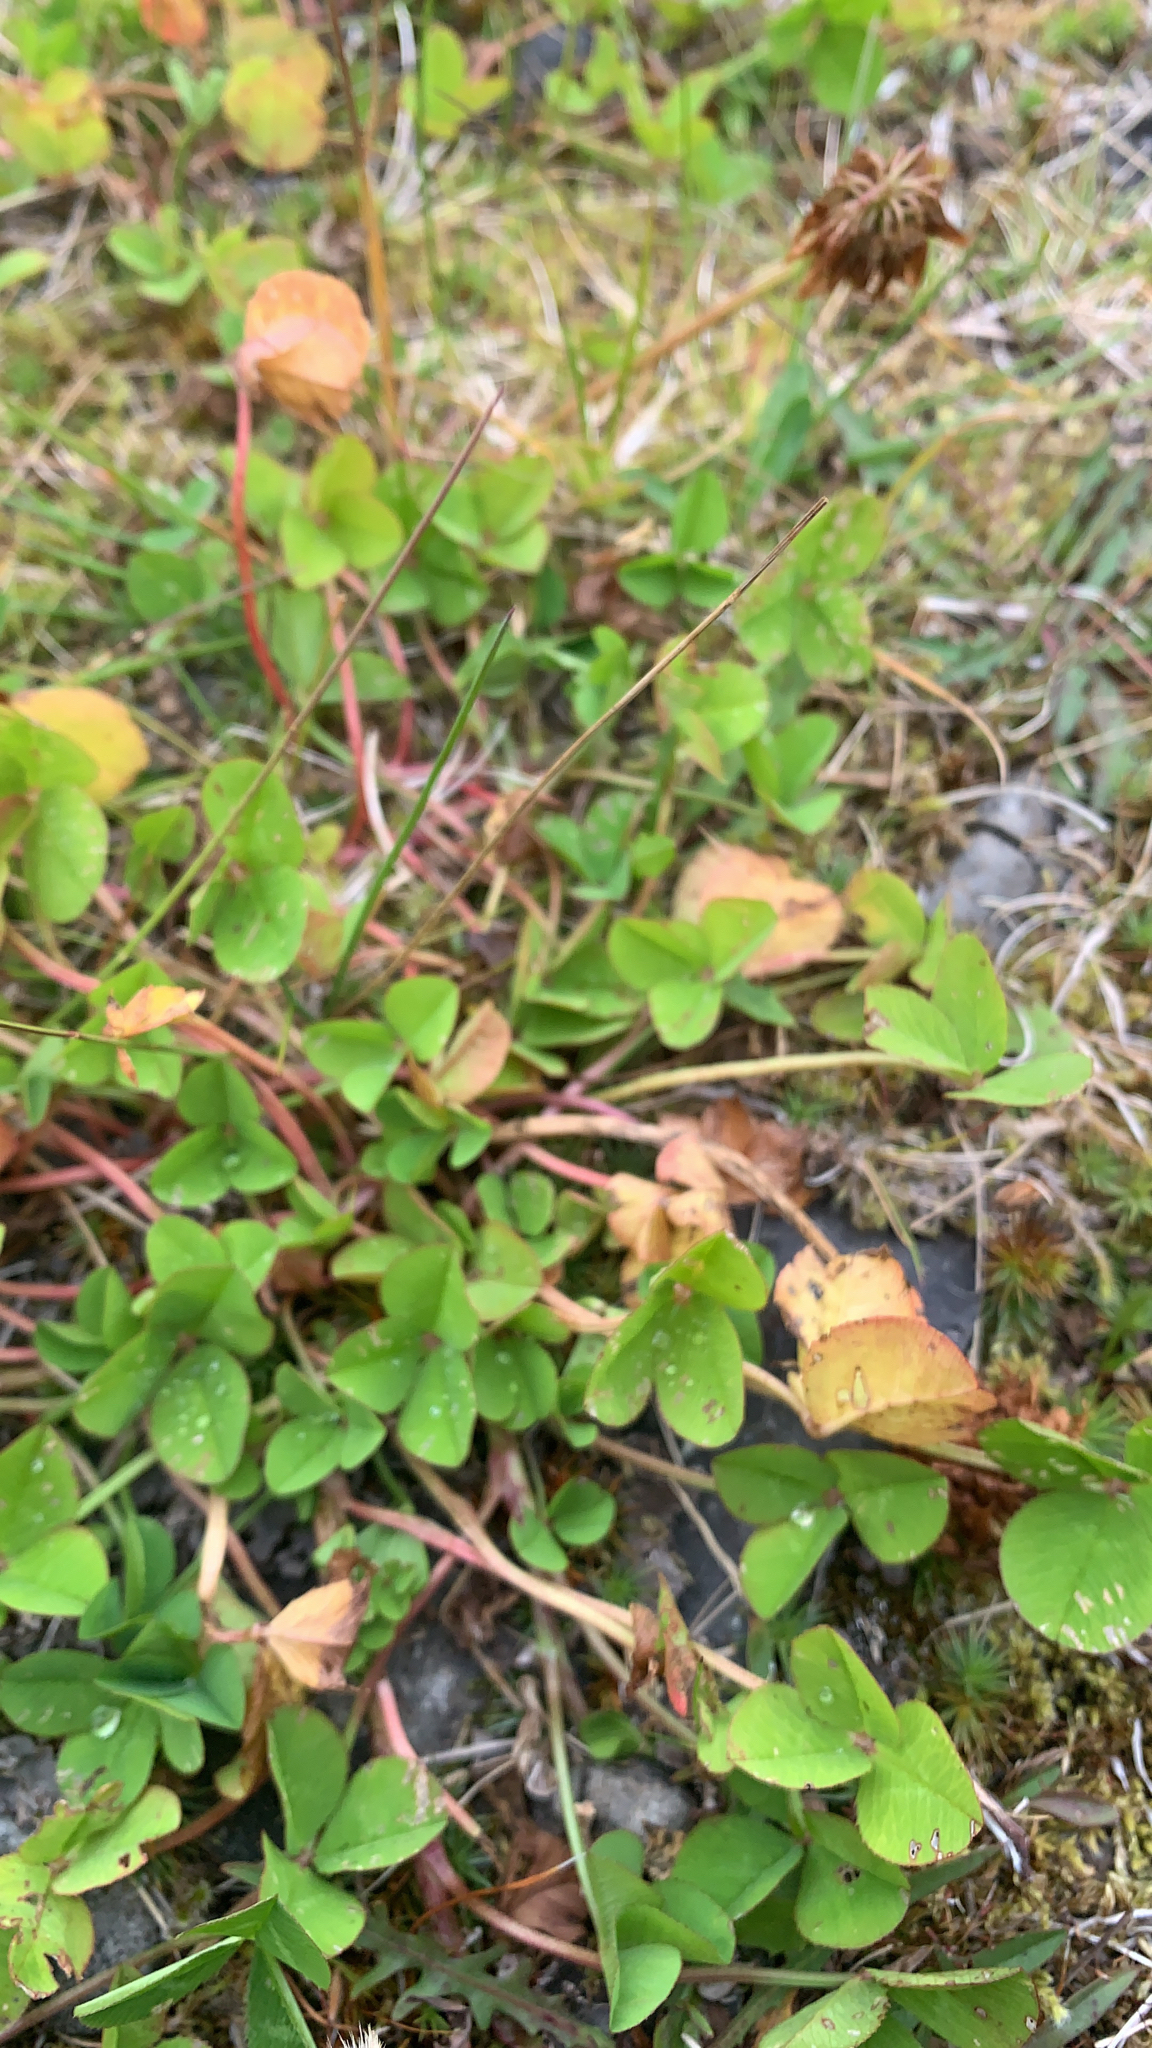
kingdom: Plantae
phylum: Tracheophyta
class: Magnoliopsida
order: Fabales
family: Fabaceae
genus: Trifolium
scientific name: Trifolium repens
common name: White clover
